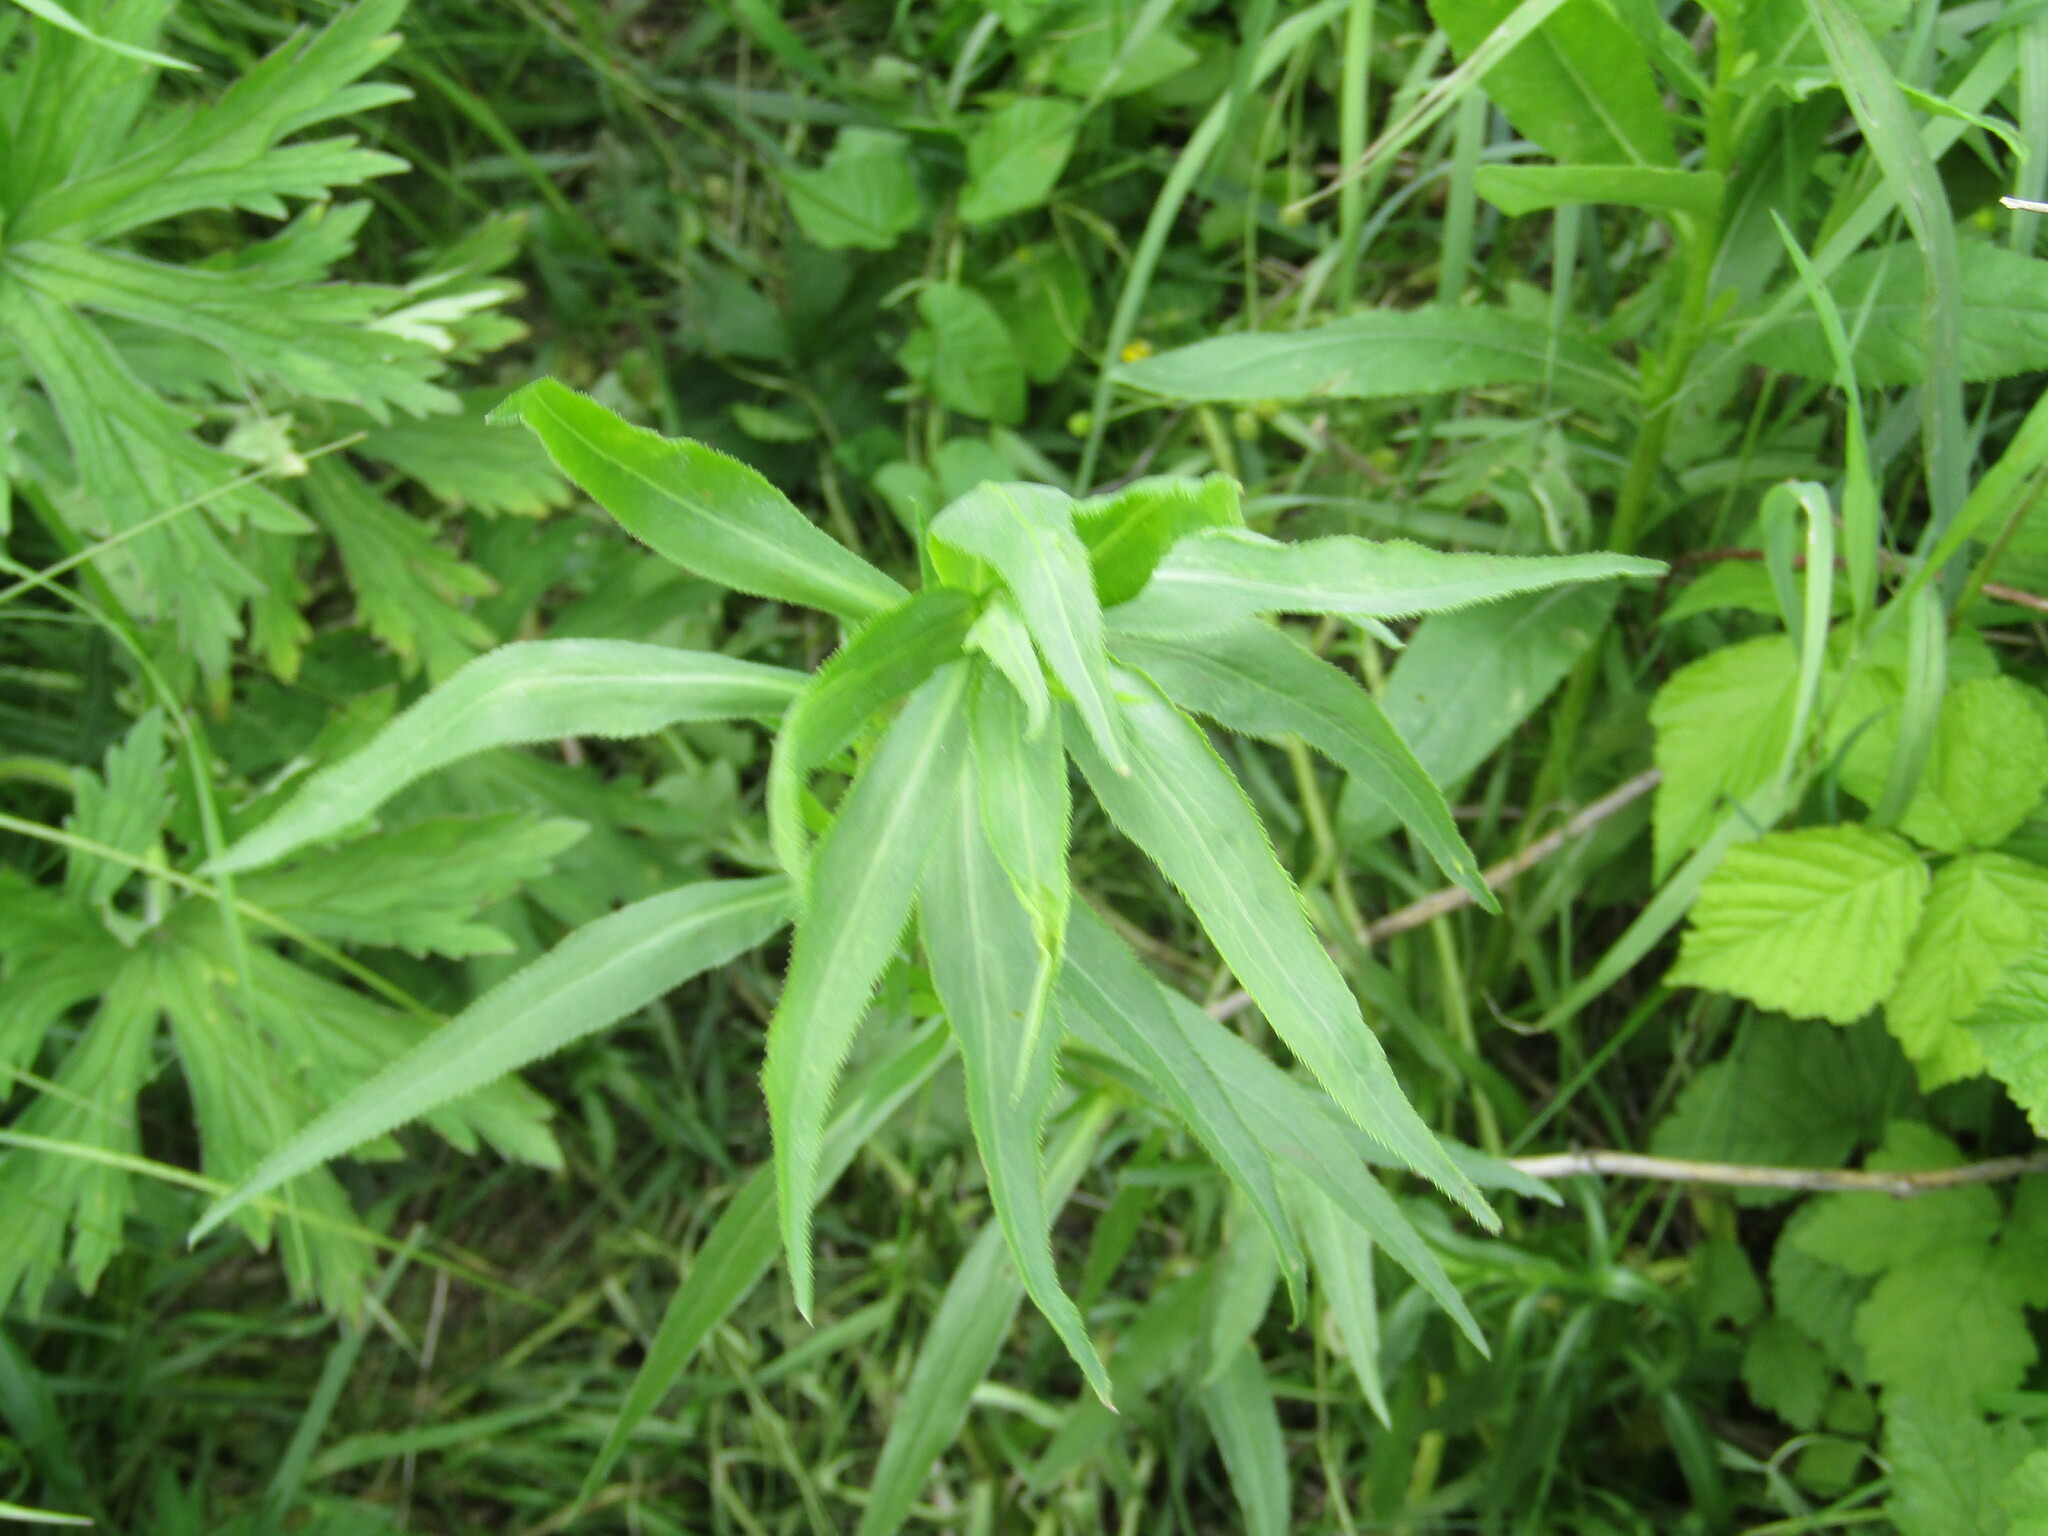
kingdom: Plantae
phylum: Tracheophyta
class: Magnoliopsida
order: Asterales
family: Asteraceae
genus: Achillea
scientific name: Achillea salicifolia
